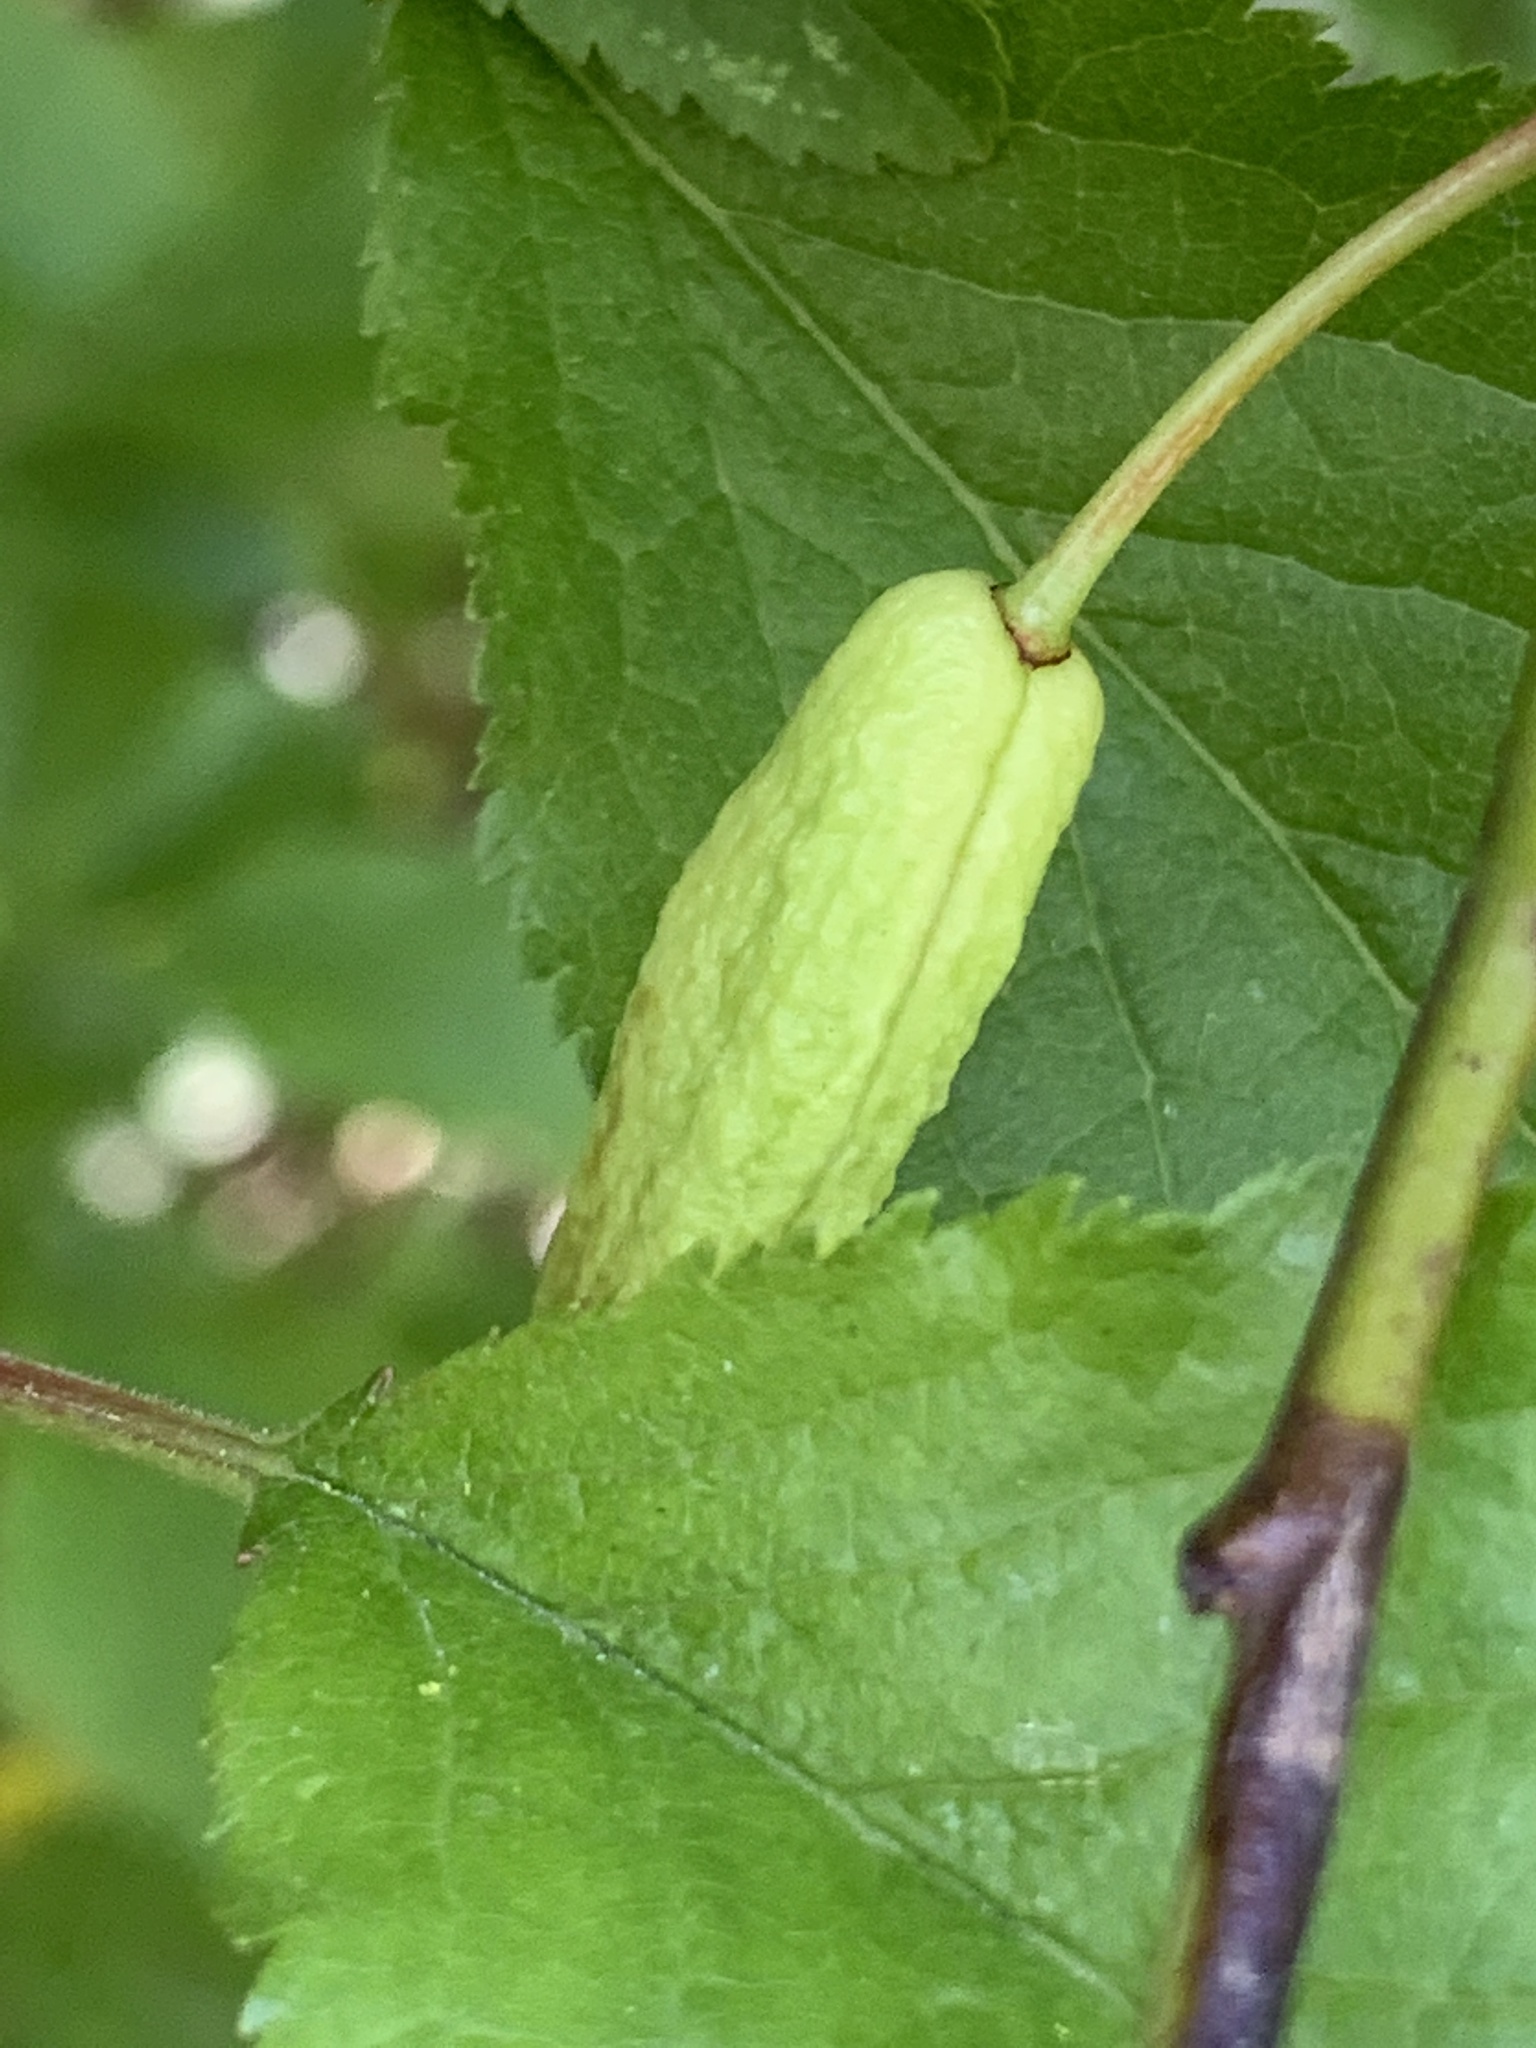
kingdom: Fungi
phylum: Ascomycota
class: Taphrinomycetes
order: Taphrinales
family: Taphrinaceae
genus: Taphrina
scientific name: Taphrina pruni
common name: Pocket plum
